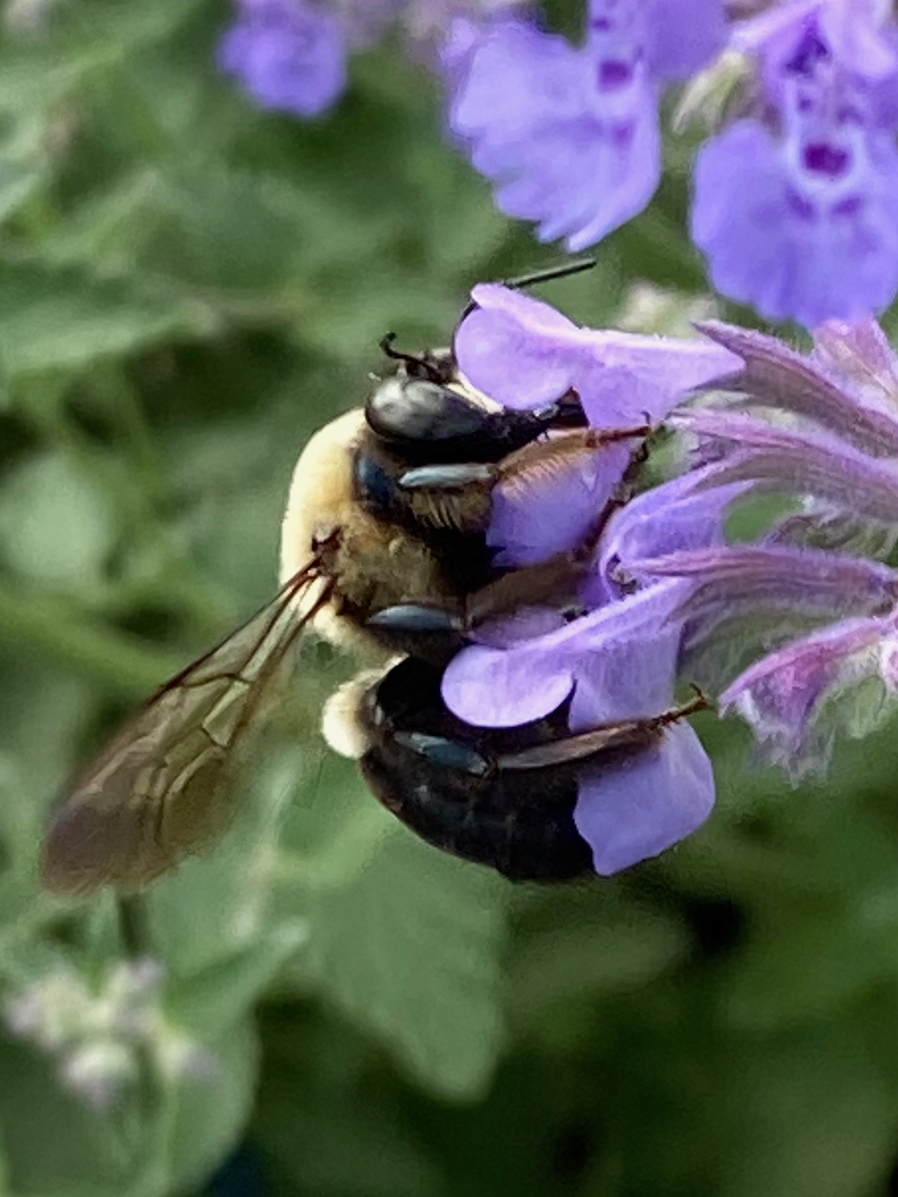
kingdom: Animalia
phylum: Arthropoda
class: Insecta
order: Hymenoptera
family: Apidae
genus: Xylocopa
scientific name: Xylocopa virginica
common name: Carpenter bee
